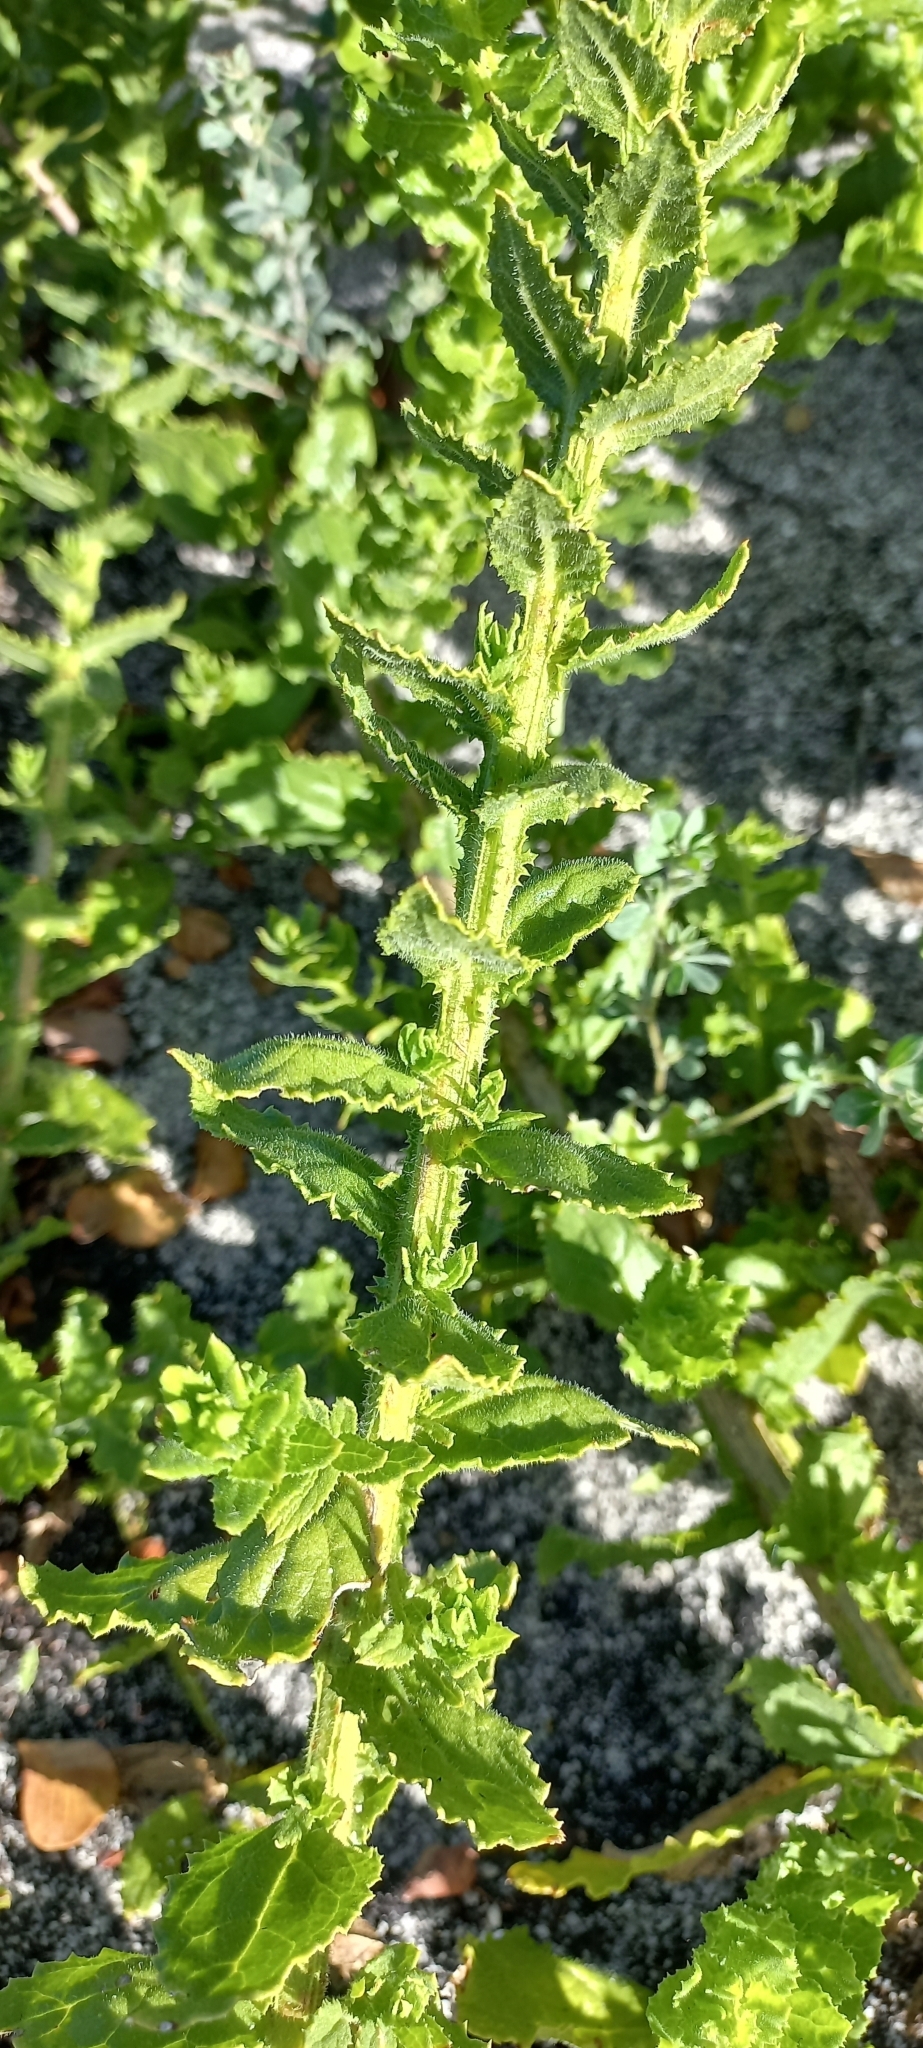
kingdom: Plantae
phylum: Tracheophyta
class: Magnoliopsida
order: Lamiales
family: Scrophulariaceae
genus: Oftia
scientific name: Oftia africana
